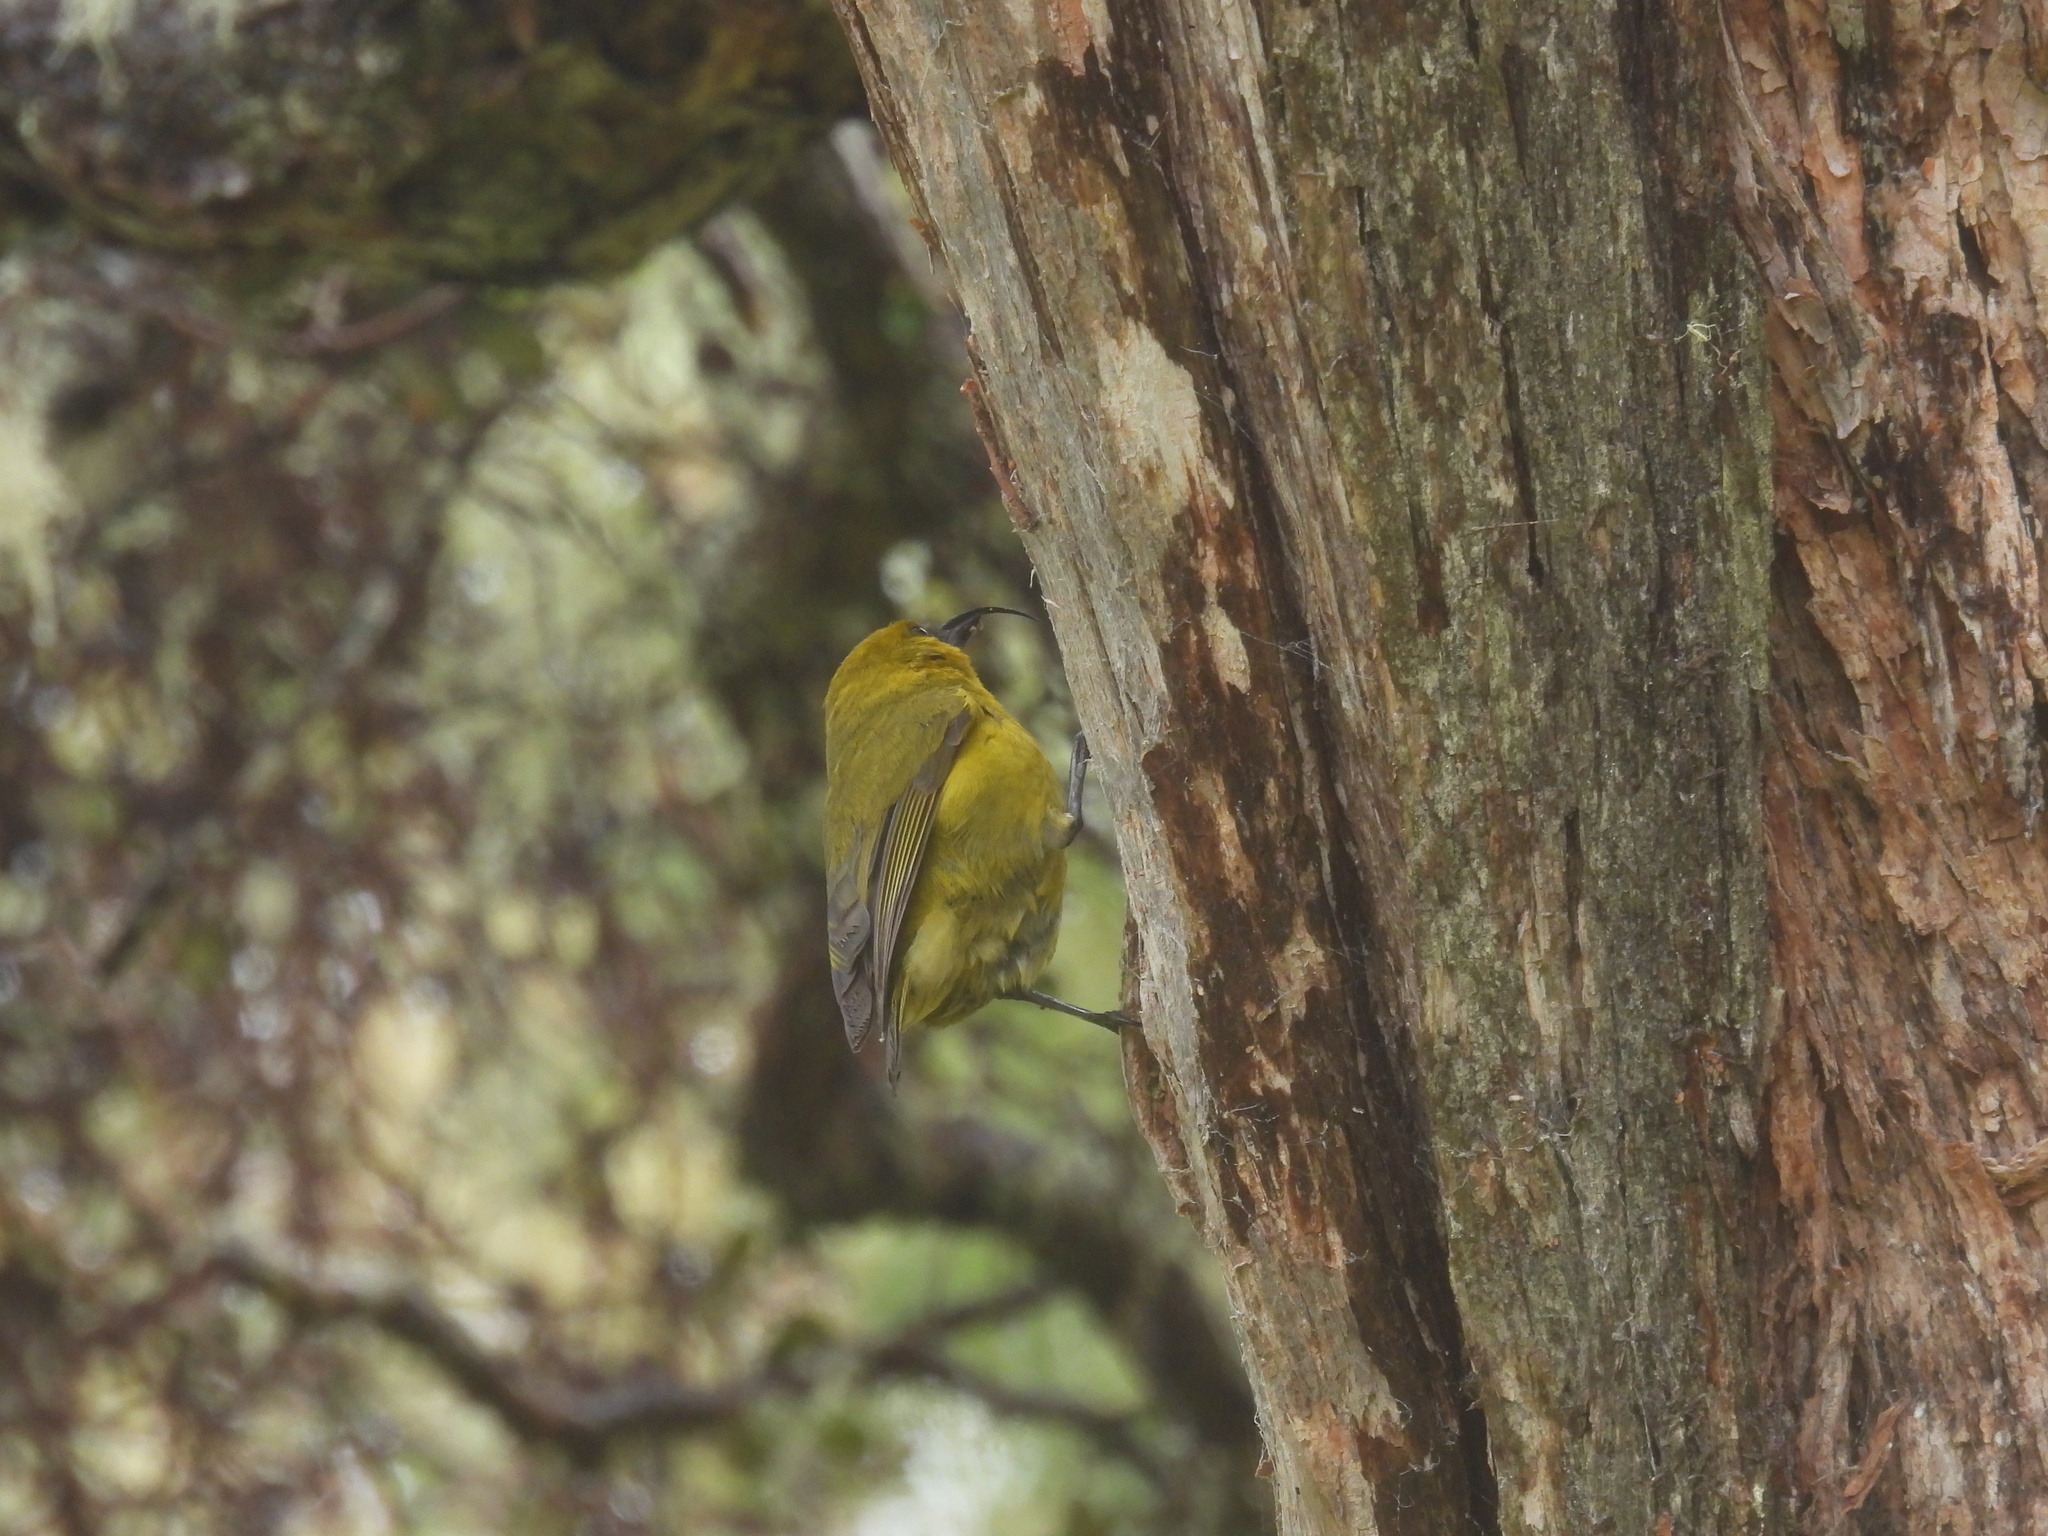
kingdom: Animalia
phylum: Chordata
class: Aves
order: Passeriformes
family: Fringillidae
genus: Hemignathus
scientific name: Hemignathus wilsoni
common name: Akiapolaau
